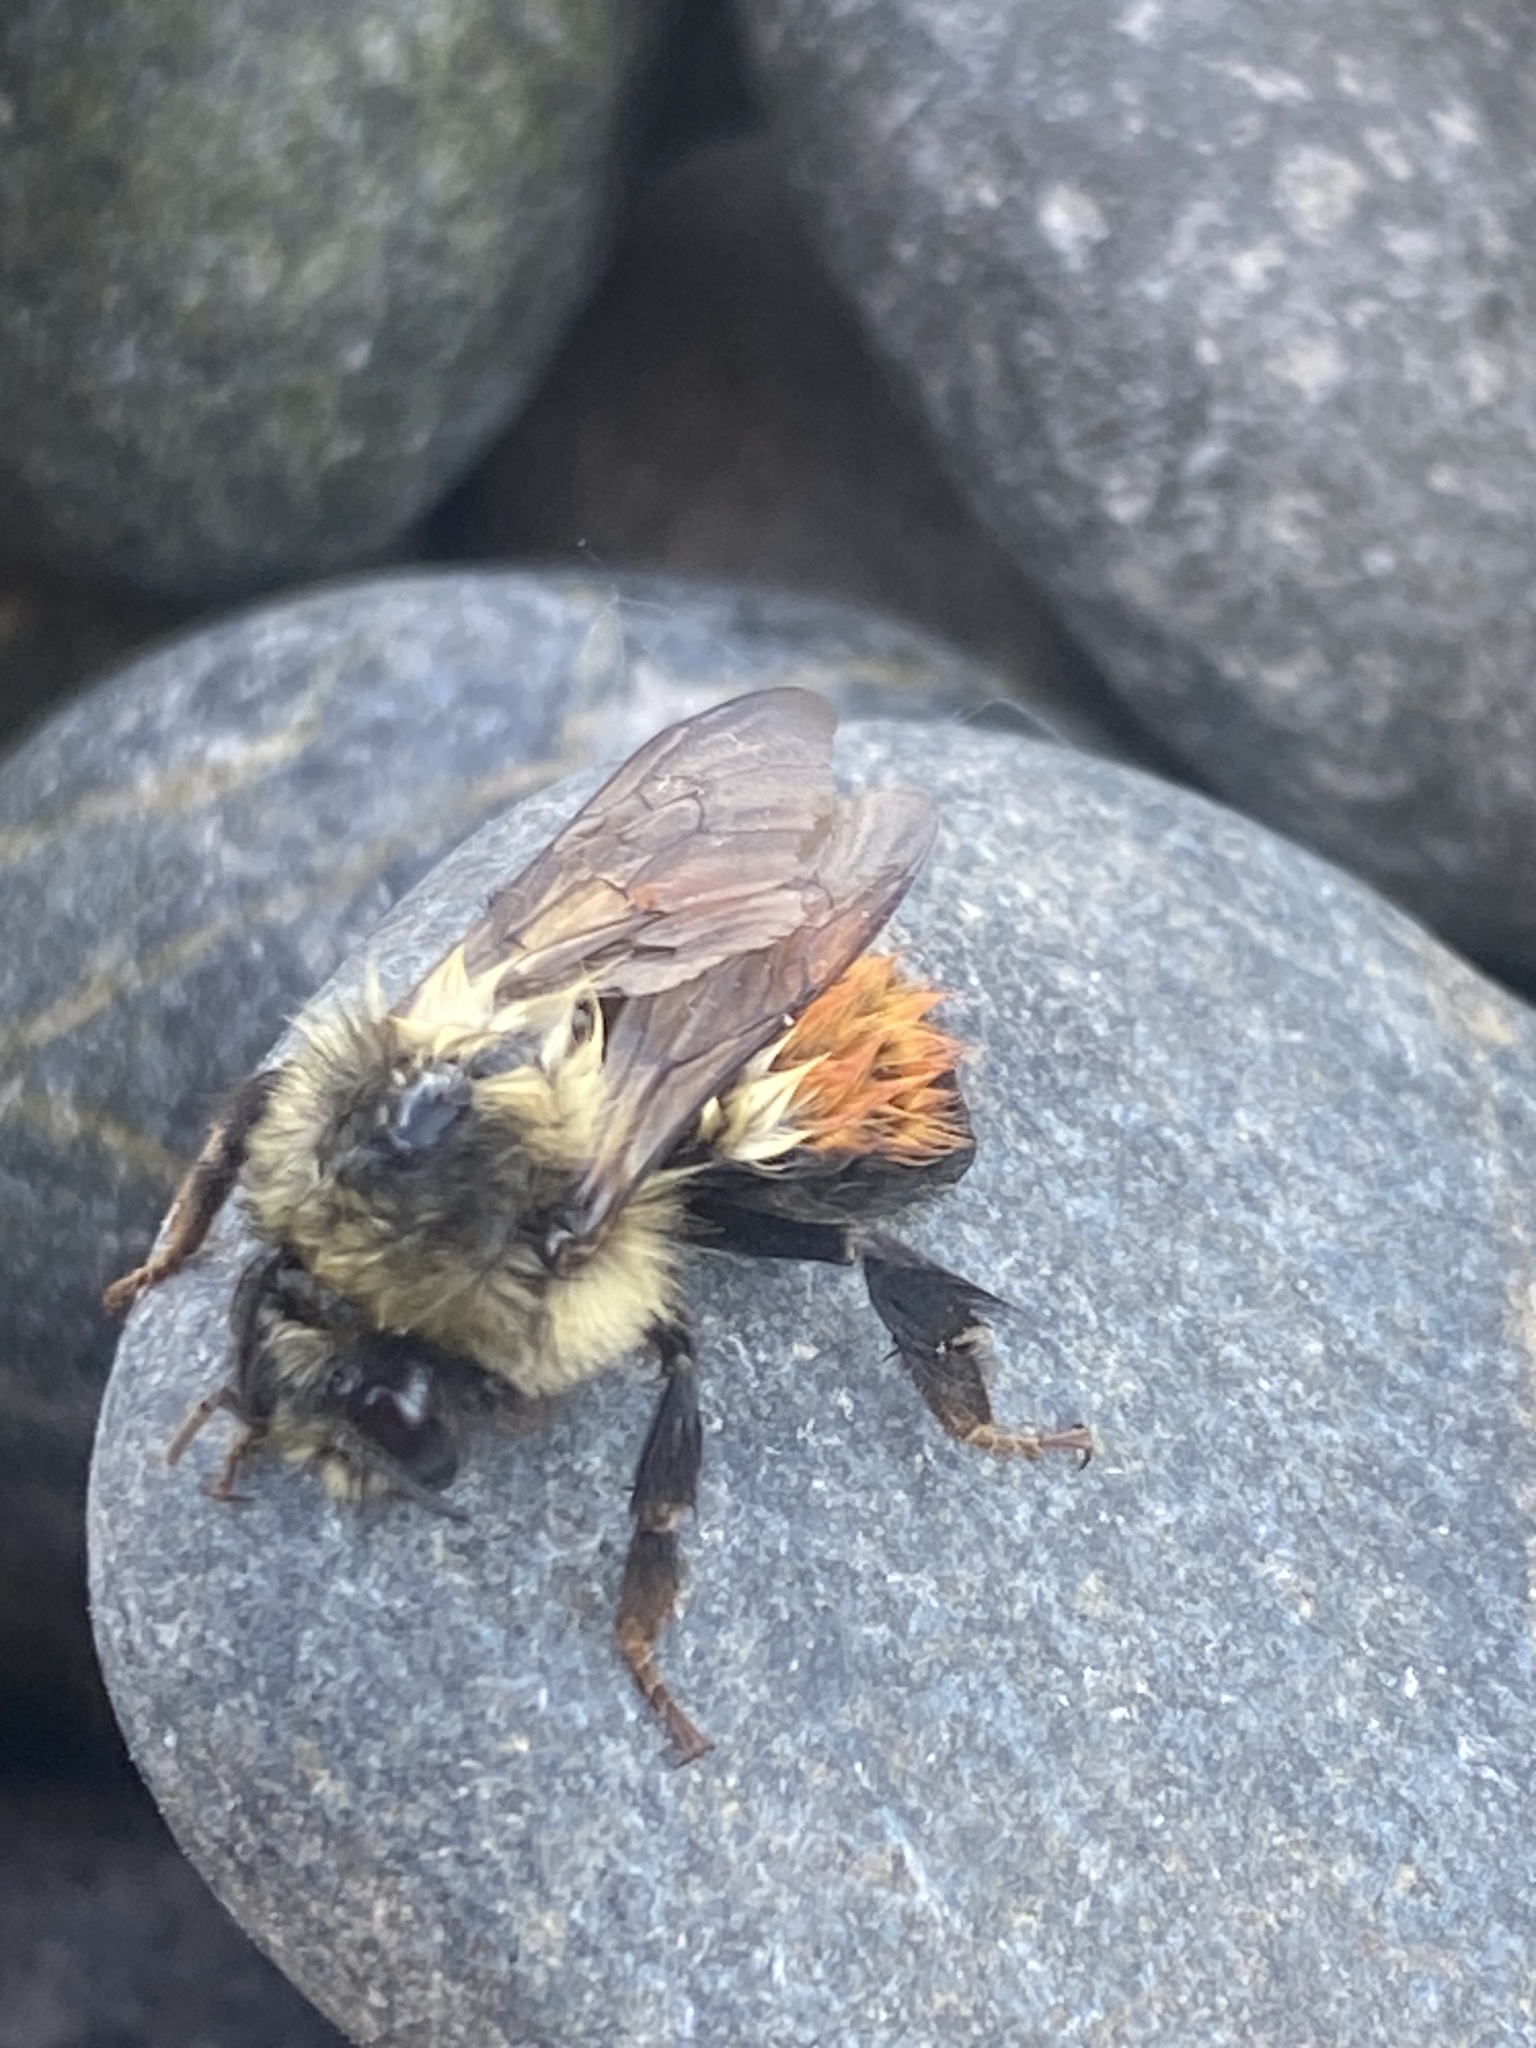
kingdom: Animalia
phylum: Arthropoda
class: Insecta
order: Hymenoptera
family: Apidae
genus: Bombus
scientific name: Bombus melanopygus
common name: Black tail bumble bee
